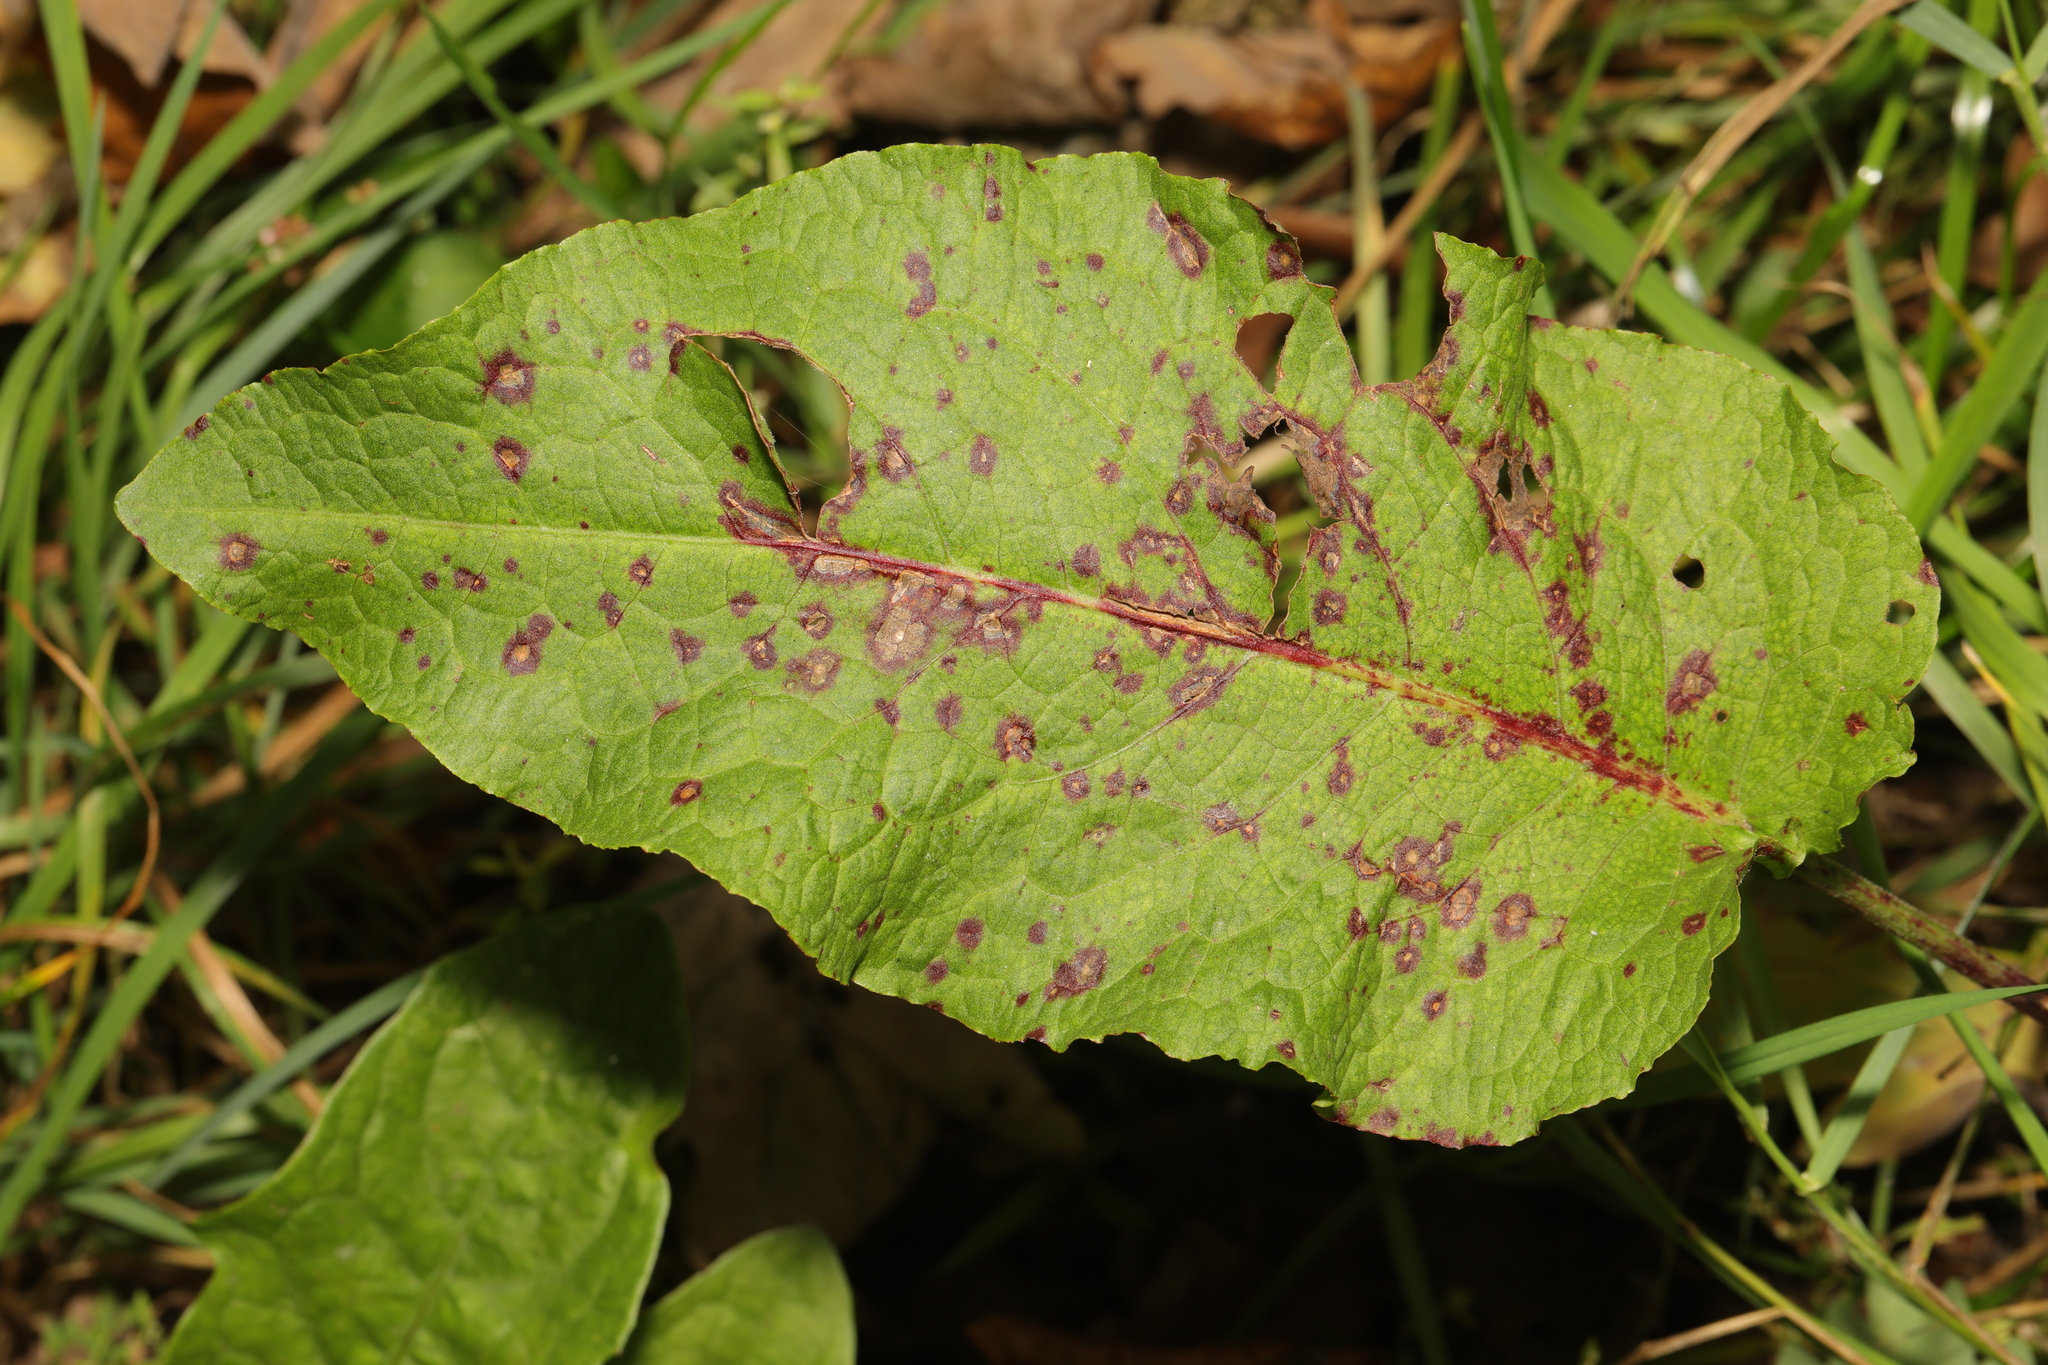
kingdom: Plantae
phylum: Tracheophyta
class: Magnoliopsida
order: Caryophyllales
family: Polygonaceae
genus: Rumex
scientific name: Rumex obtusifolius
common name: Bitter dock
